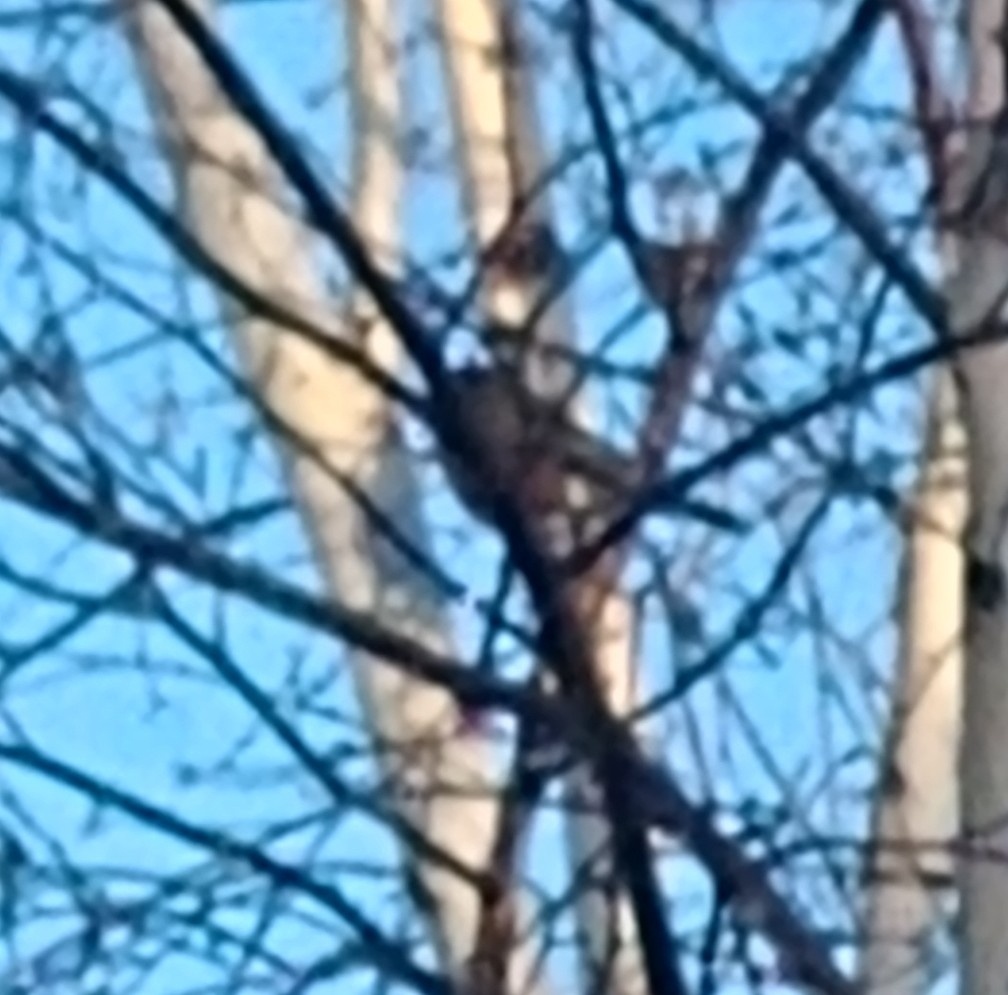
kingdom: Animalia
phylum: Chordata
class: Aves
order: Passeriformes
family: Turdidae
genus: Turdus
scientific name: Turdus migratorius
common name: American robin
